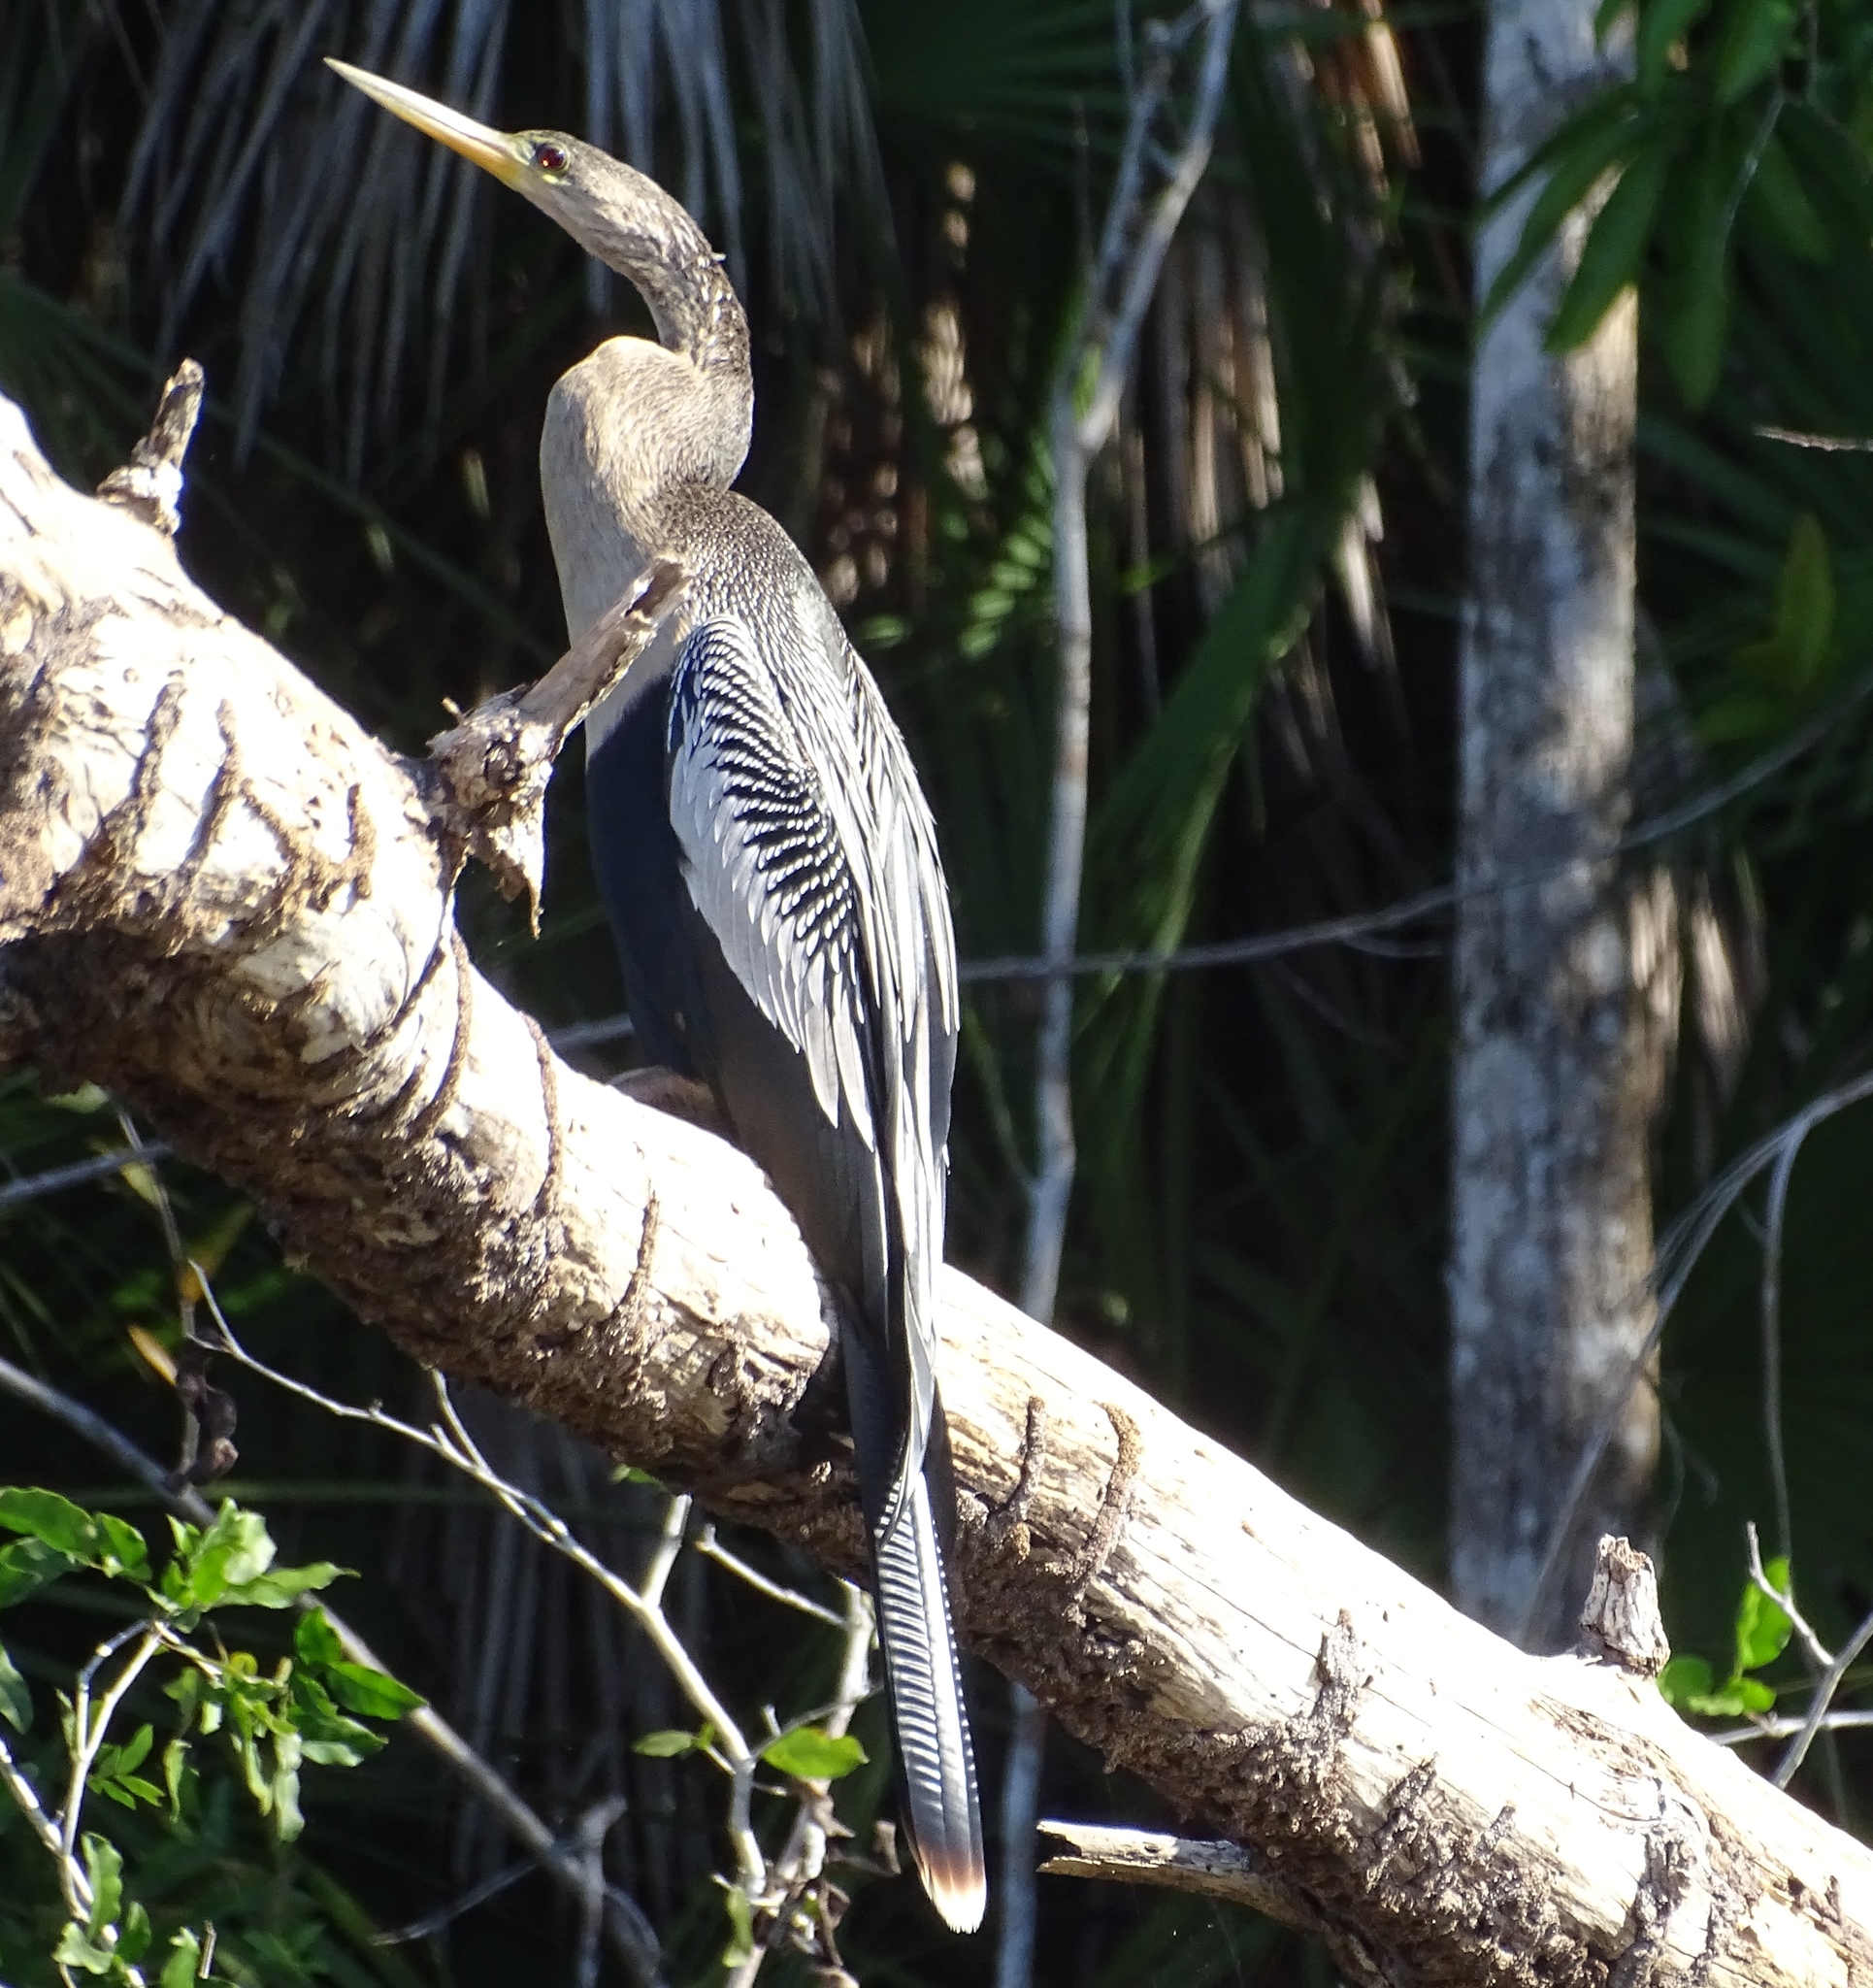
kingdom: Animalia
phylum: Chordata
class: Aves
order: Suliformes
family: Anhingidae
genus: Anhinga
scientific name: Anhinga anhinga
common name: Anhinga
